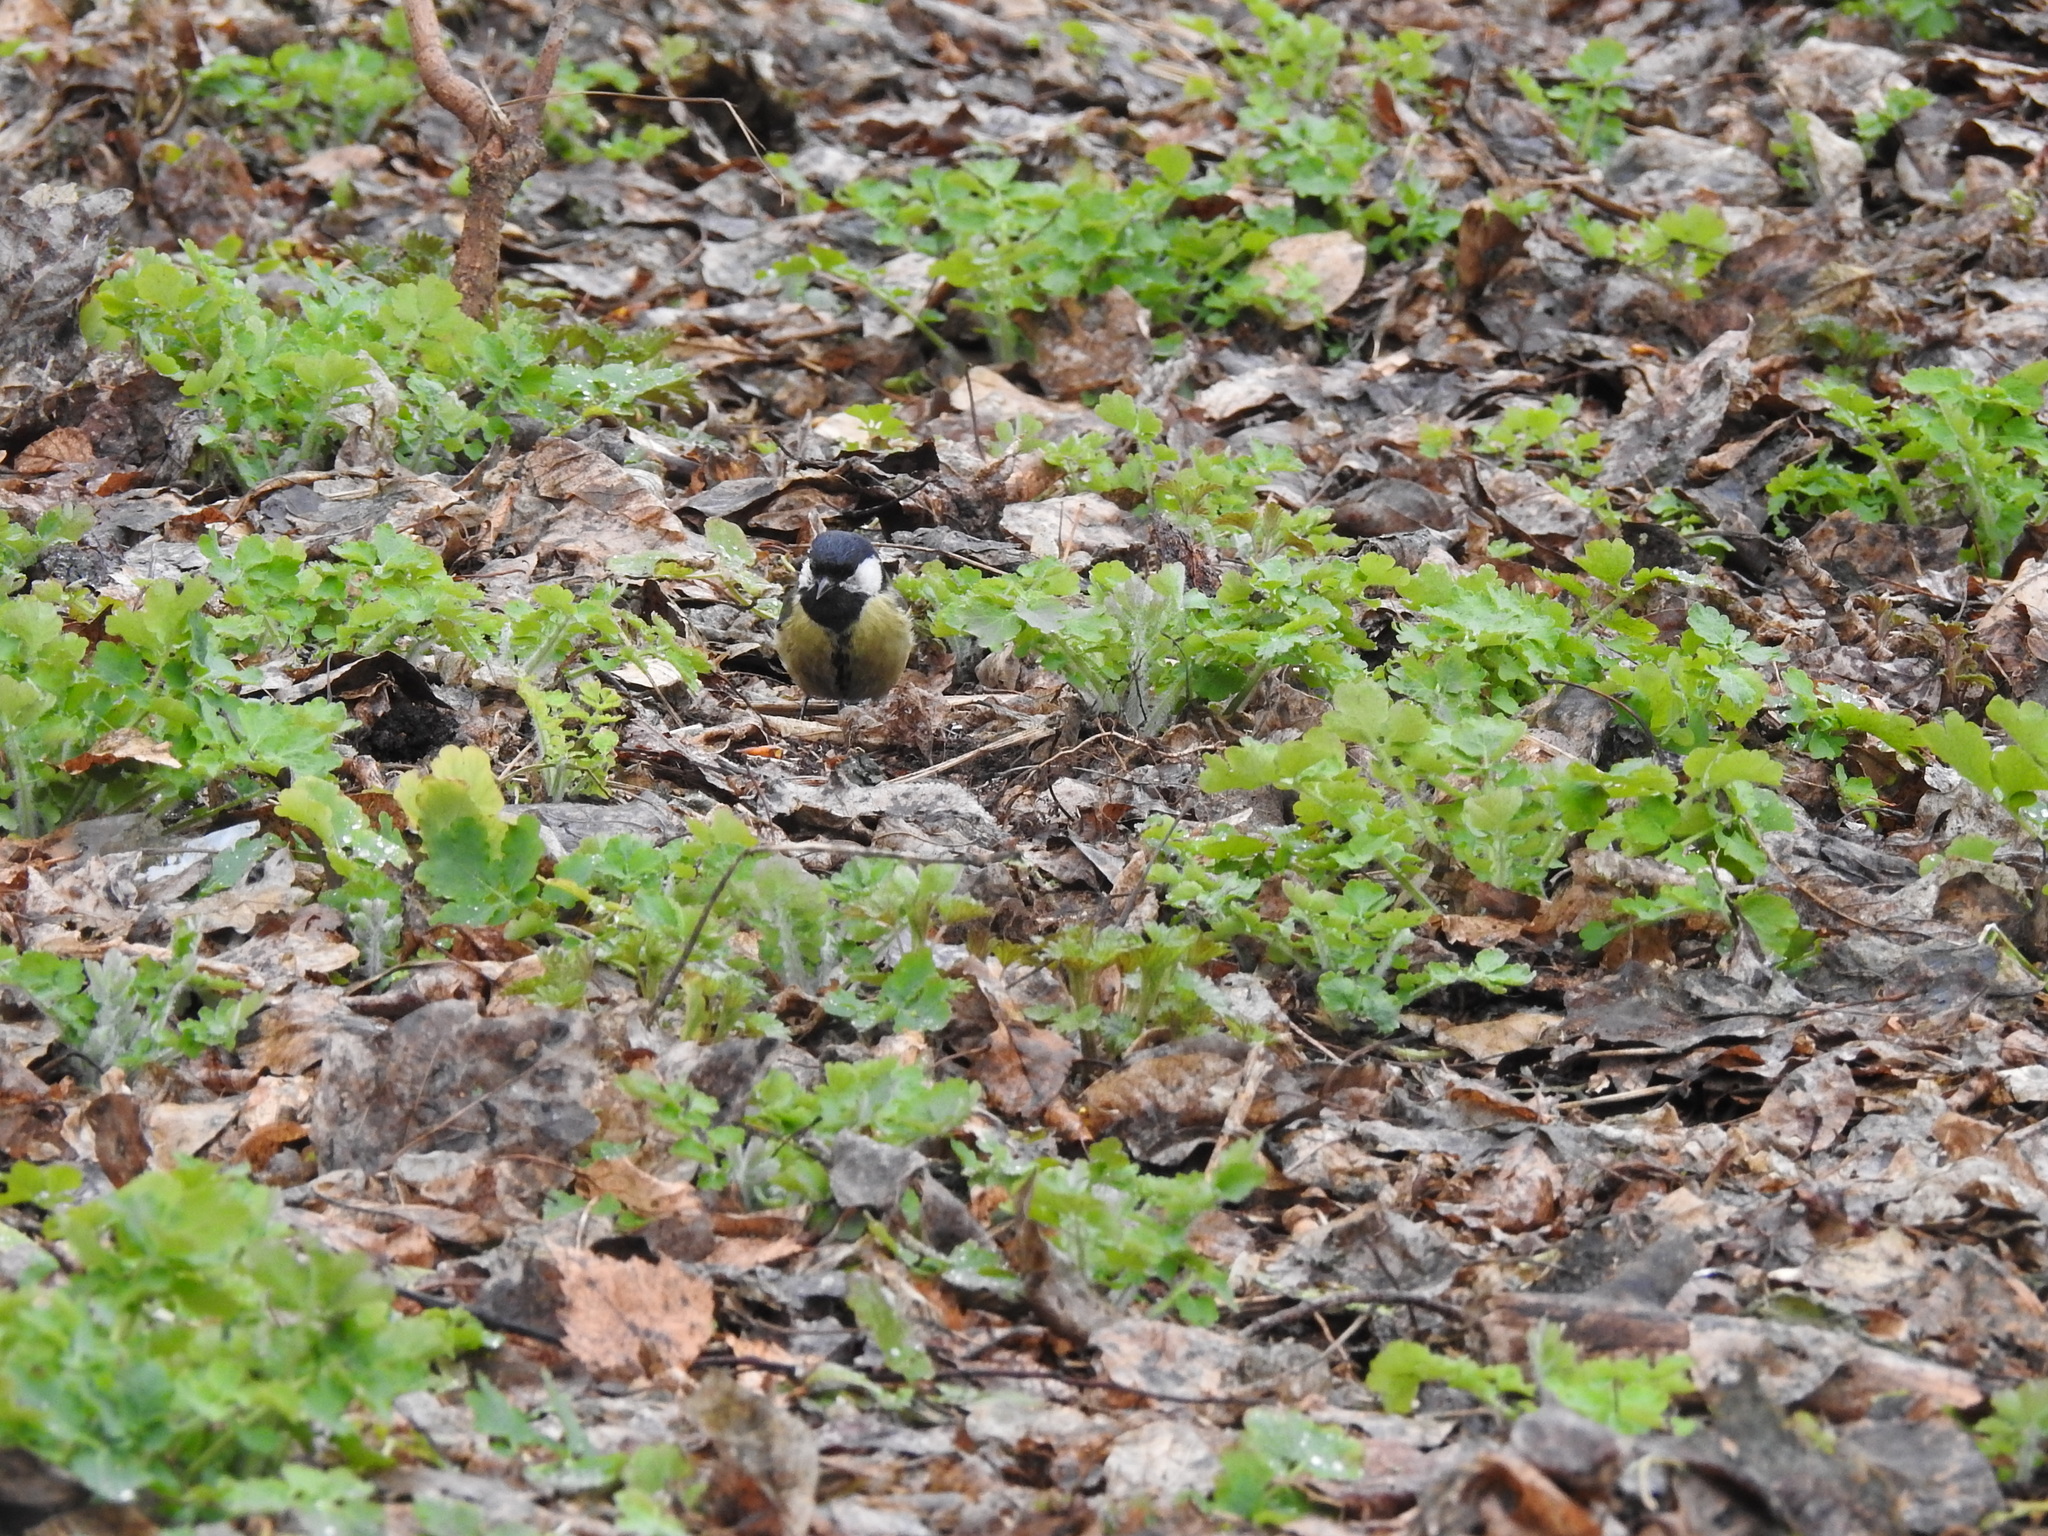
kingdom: Animalia
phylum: Chordata
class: Aves
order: Passeriformes
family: Paridae
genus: Parus
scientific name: Parus major
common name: Great tit
